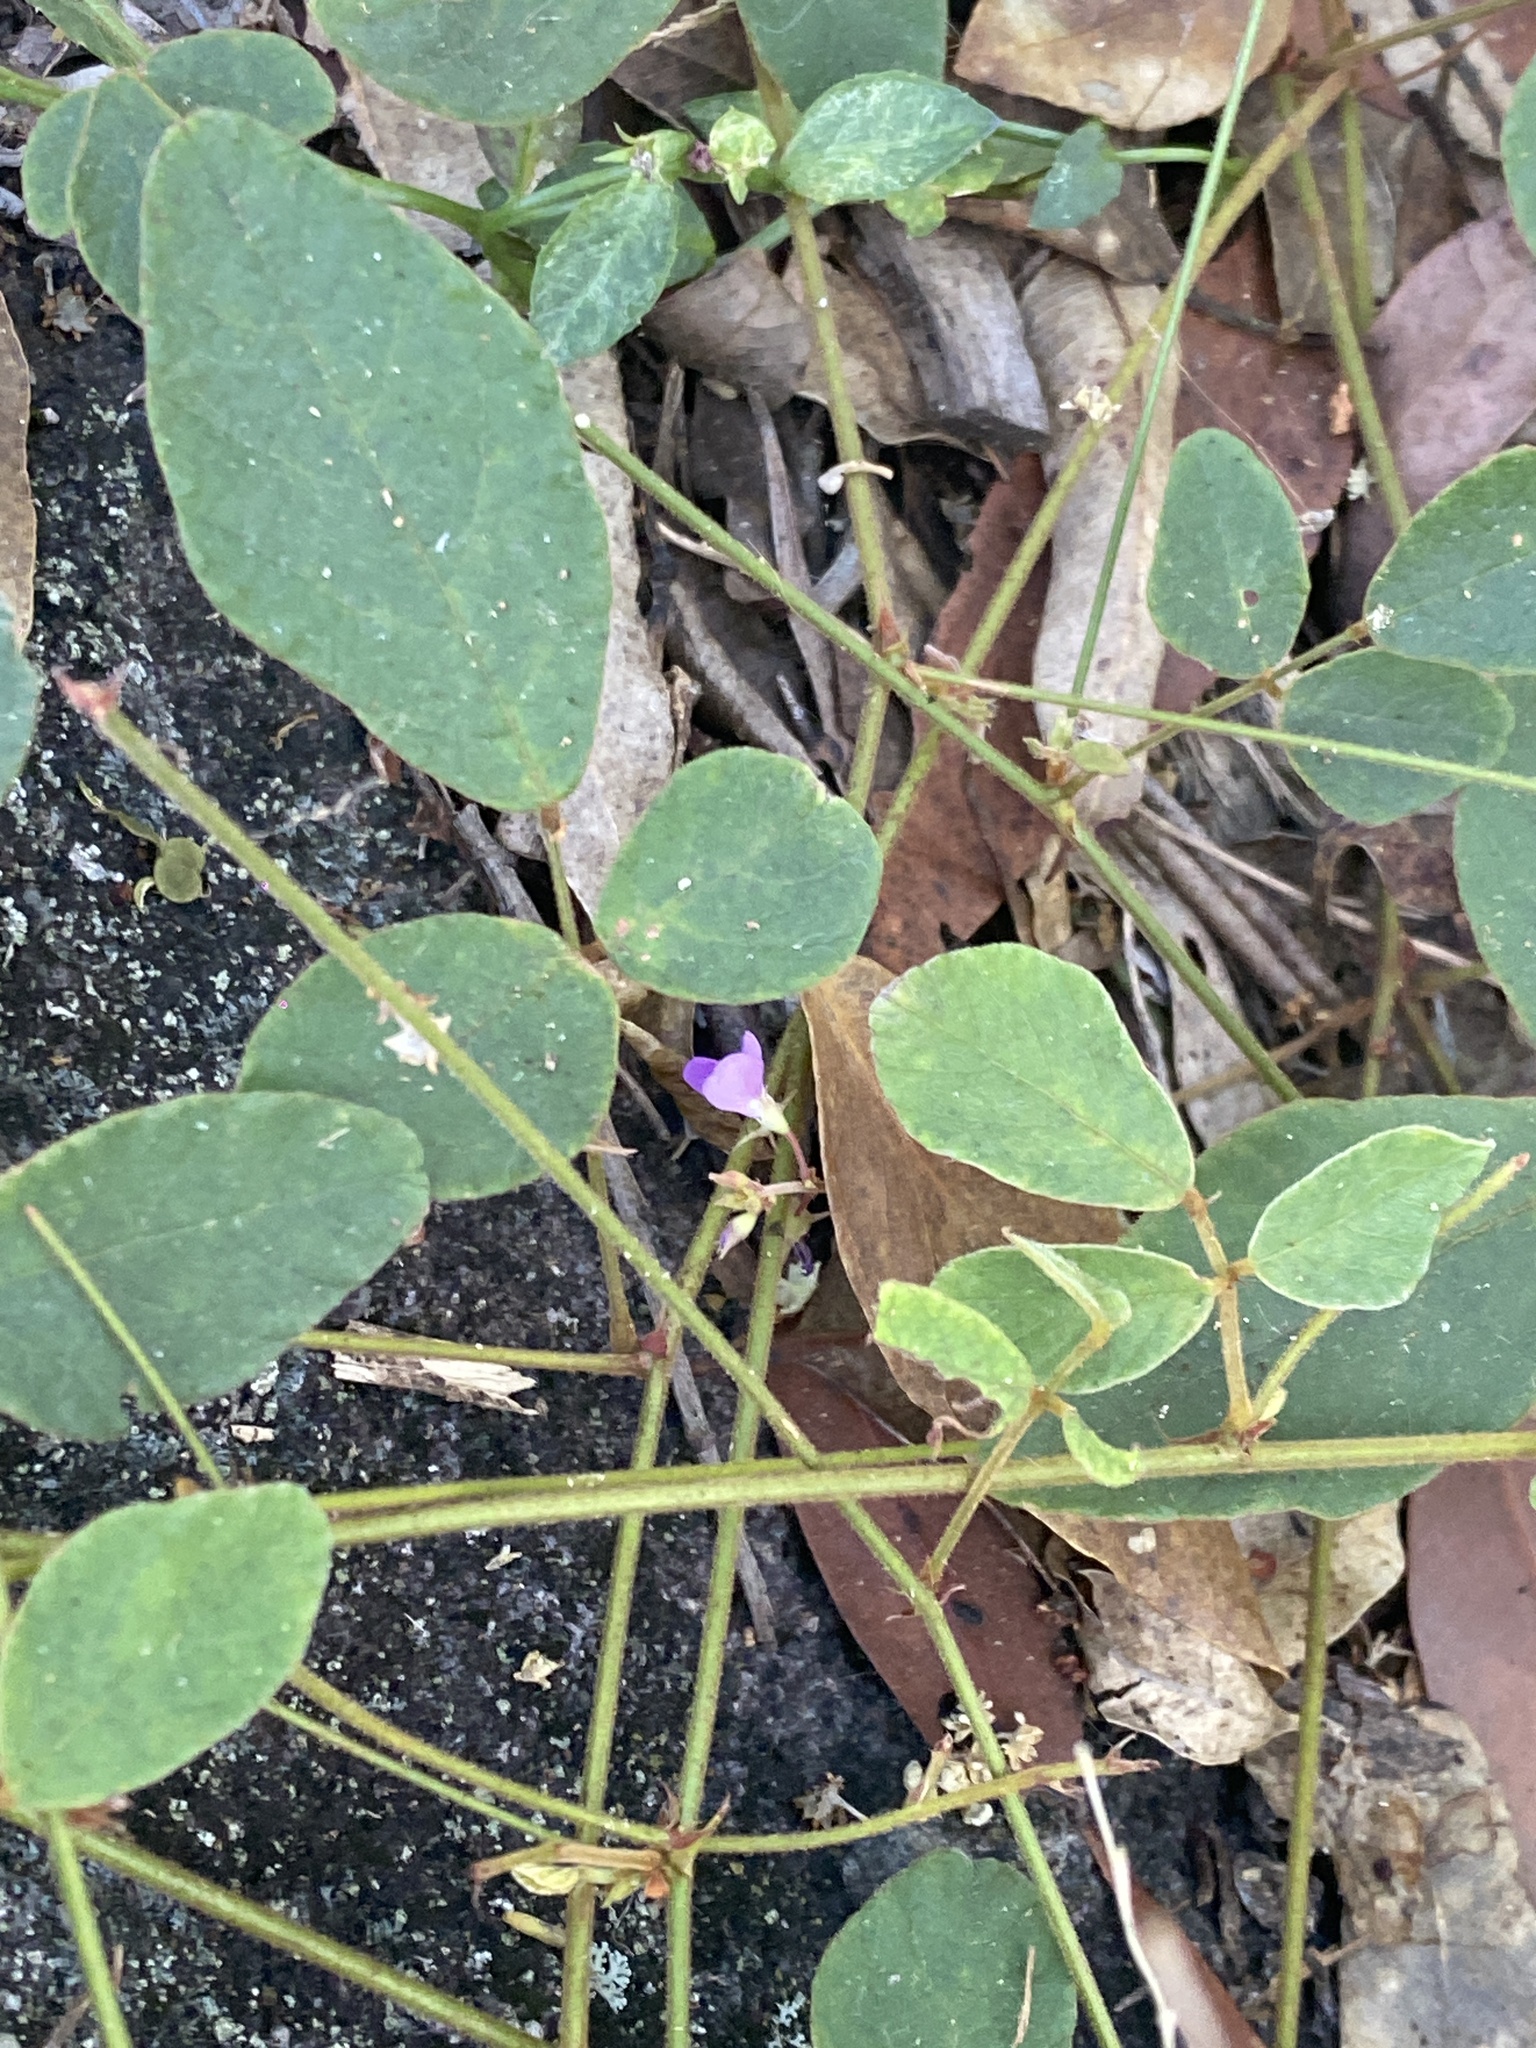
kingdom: Plantae
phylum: Tracheophyta
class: Magnoliopsida
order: Fabales
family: Fabaceae
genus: Maekawaea
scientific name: Maekawaea rhytidophylla
